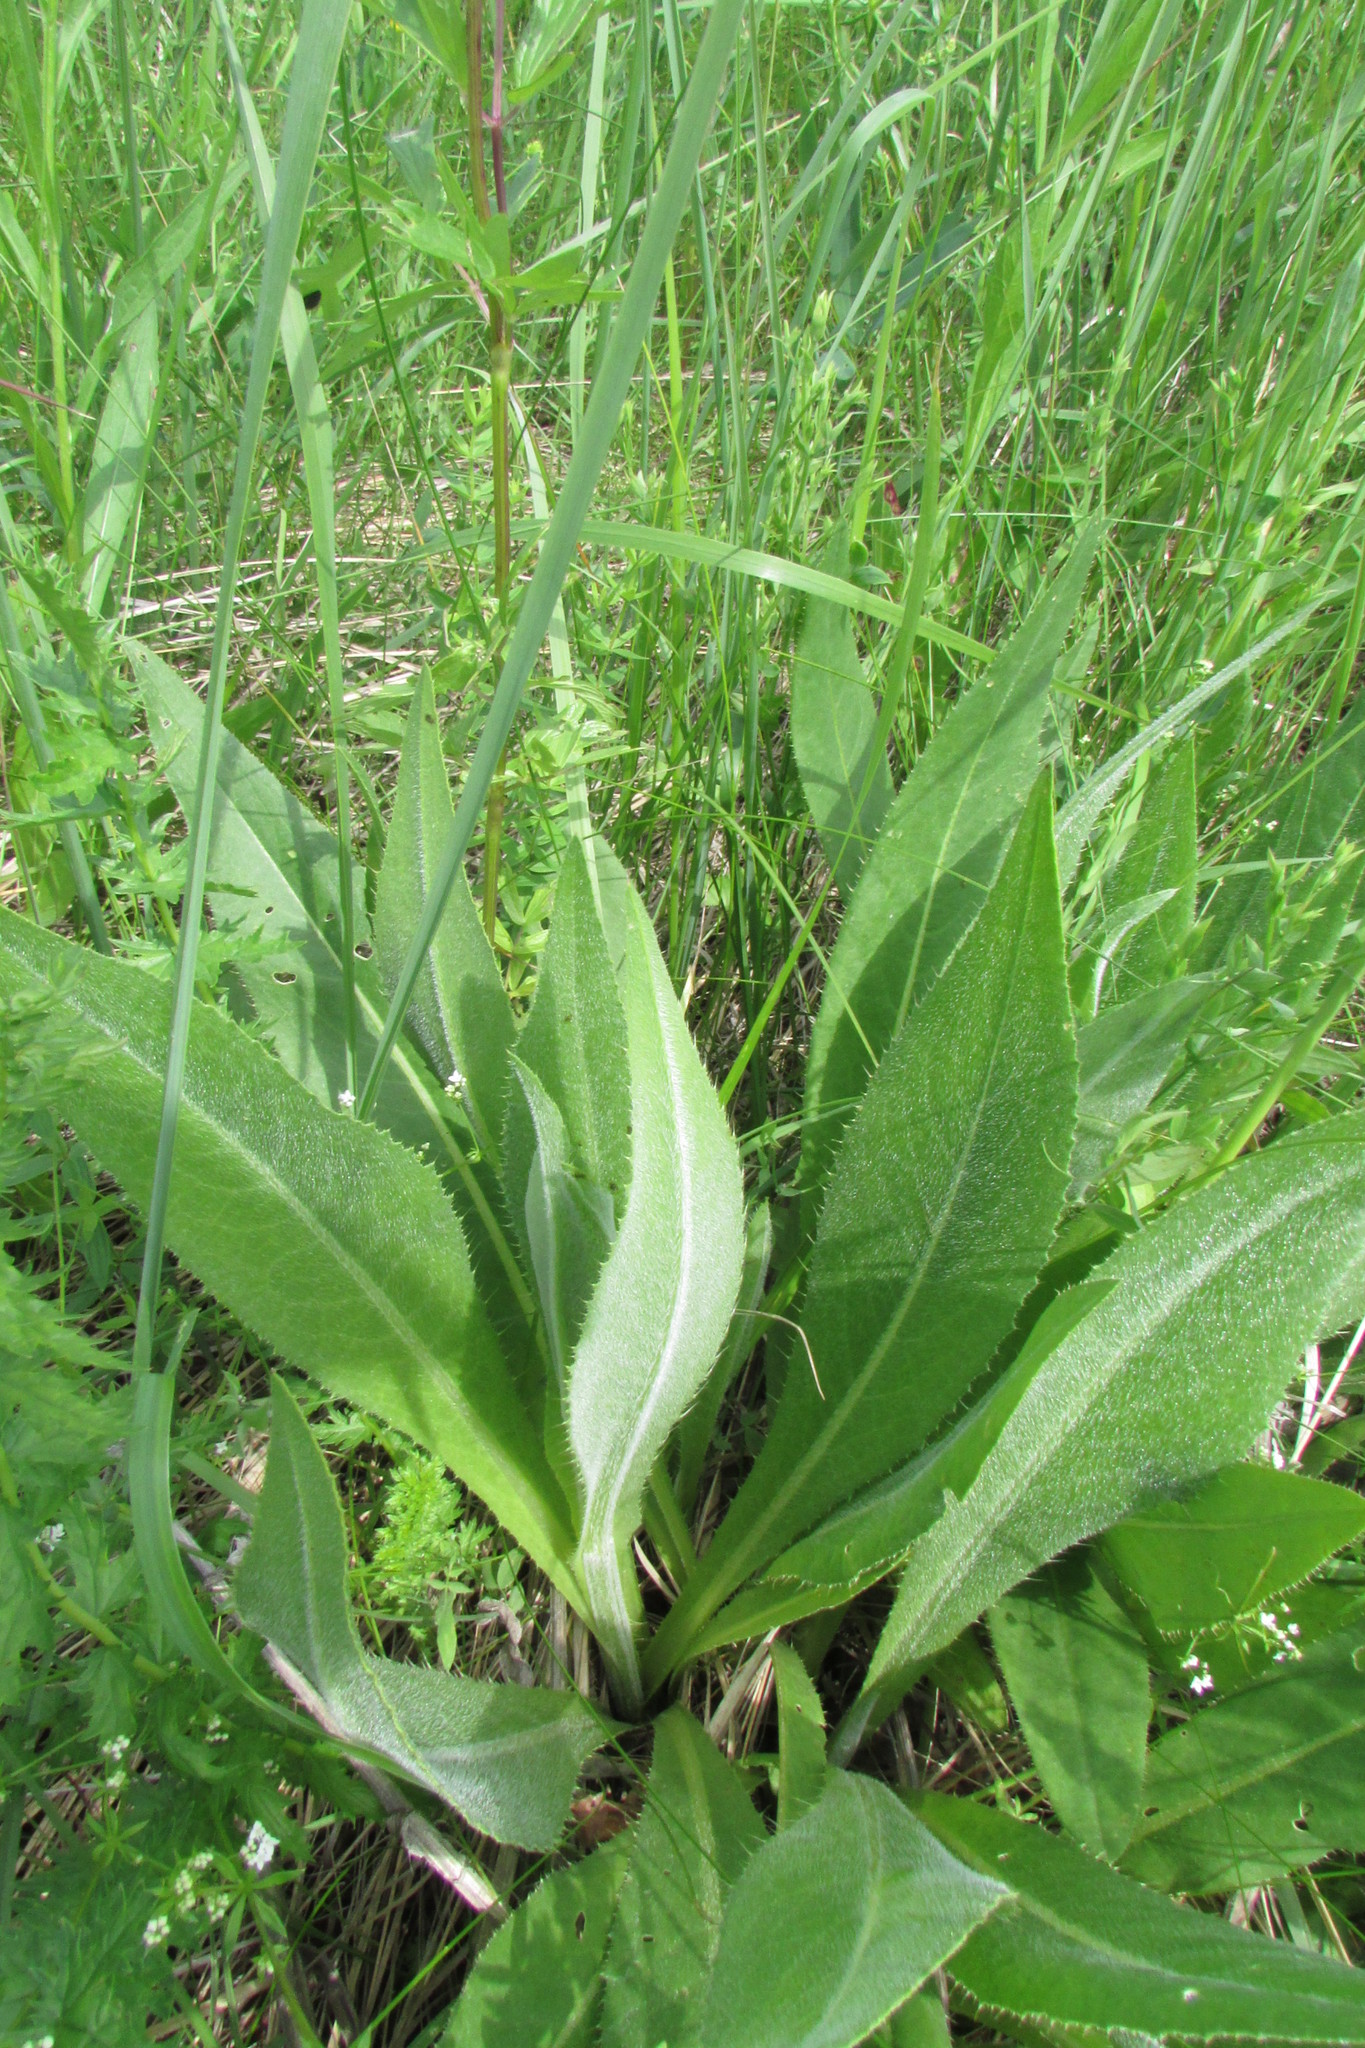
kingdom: Plantae
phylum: Tracheophyta
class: Magnoliopsida
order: Asterales
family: Asteraceae
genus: Cirsium
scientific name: Cirsium canum
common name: Queen anne's thistle
